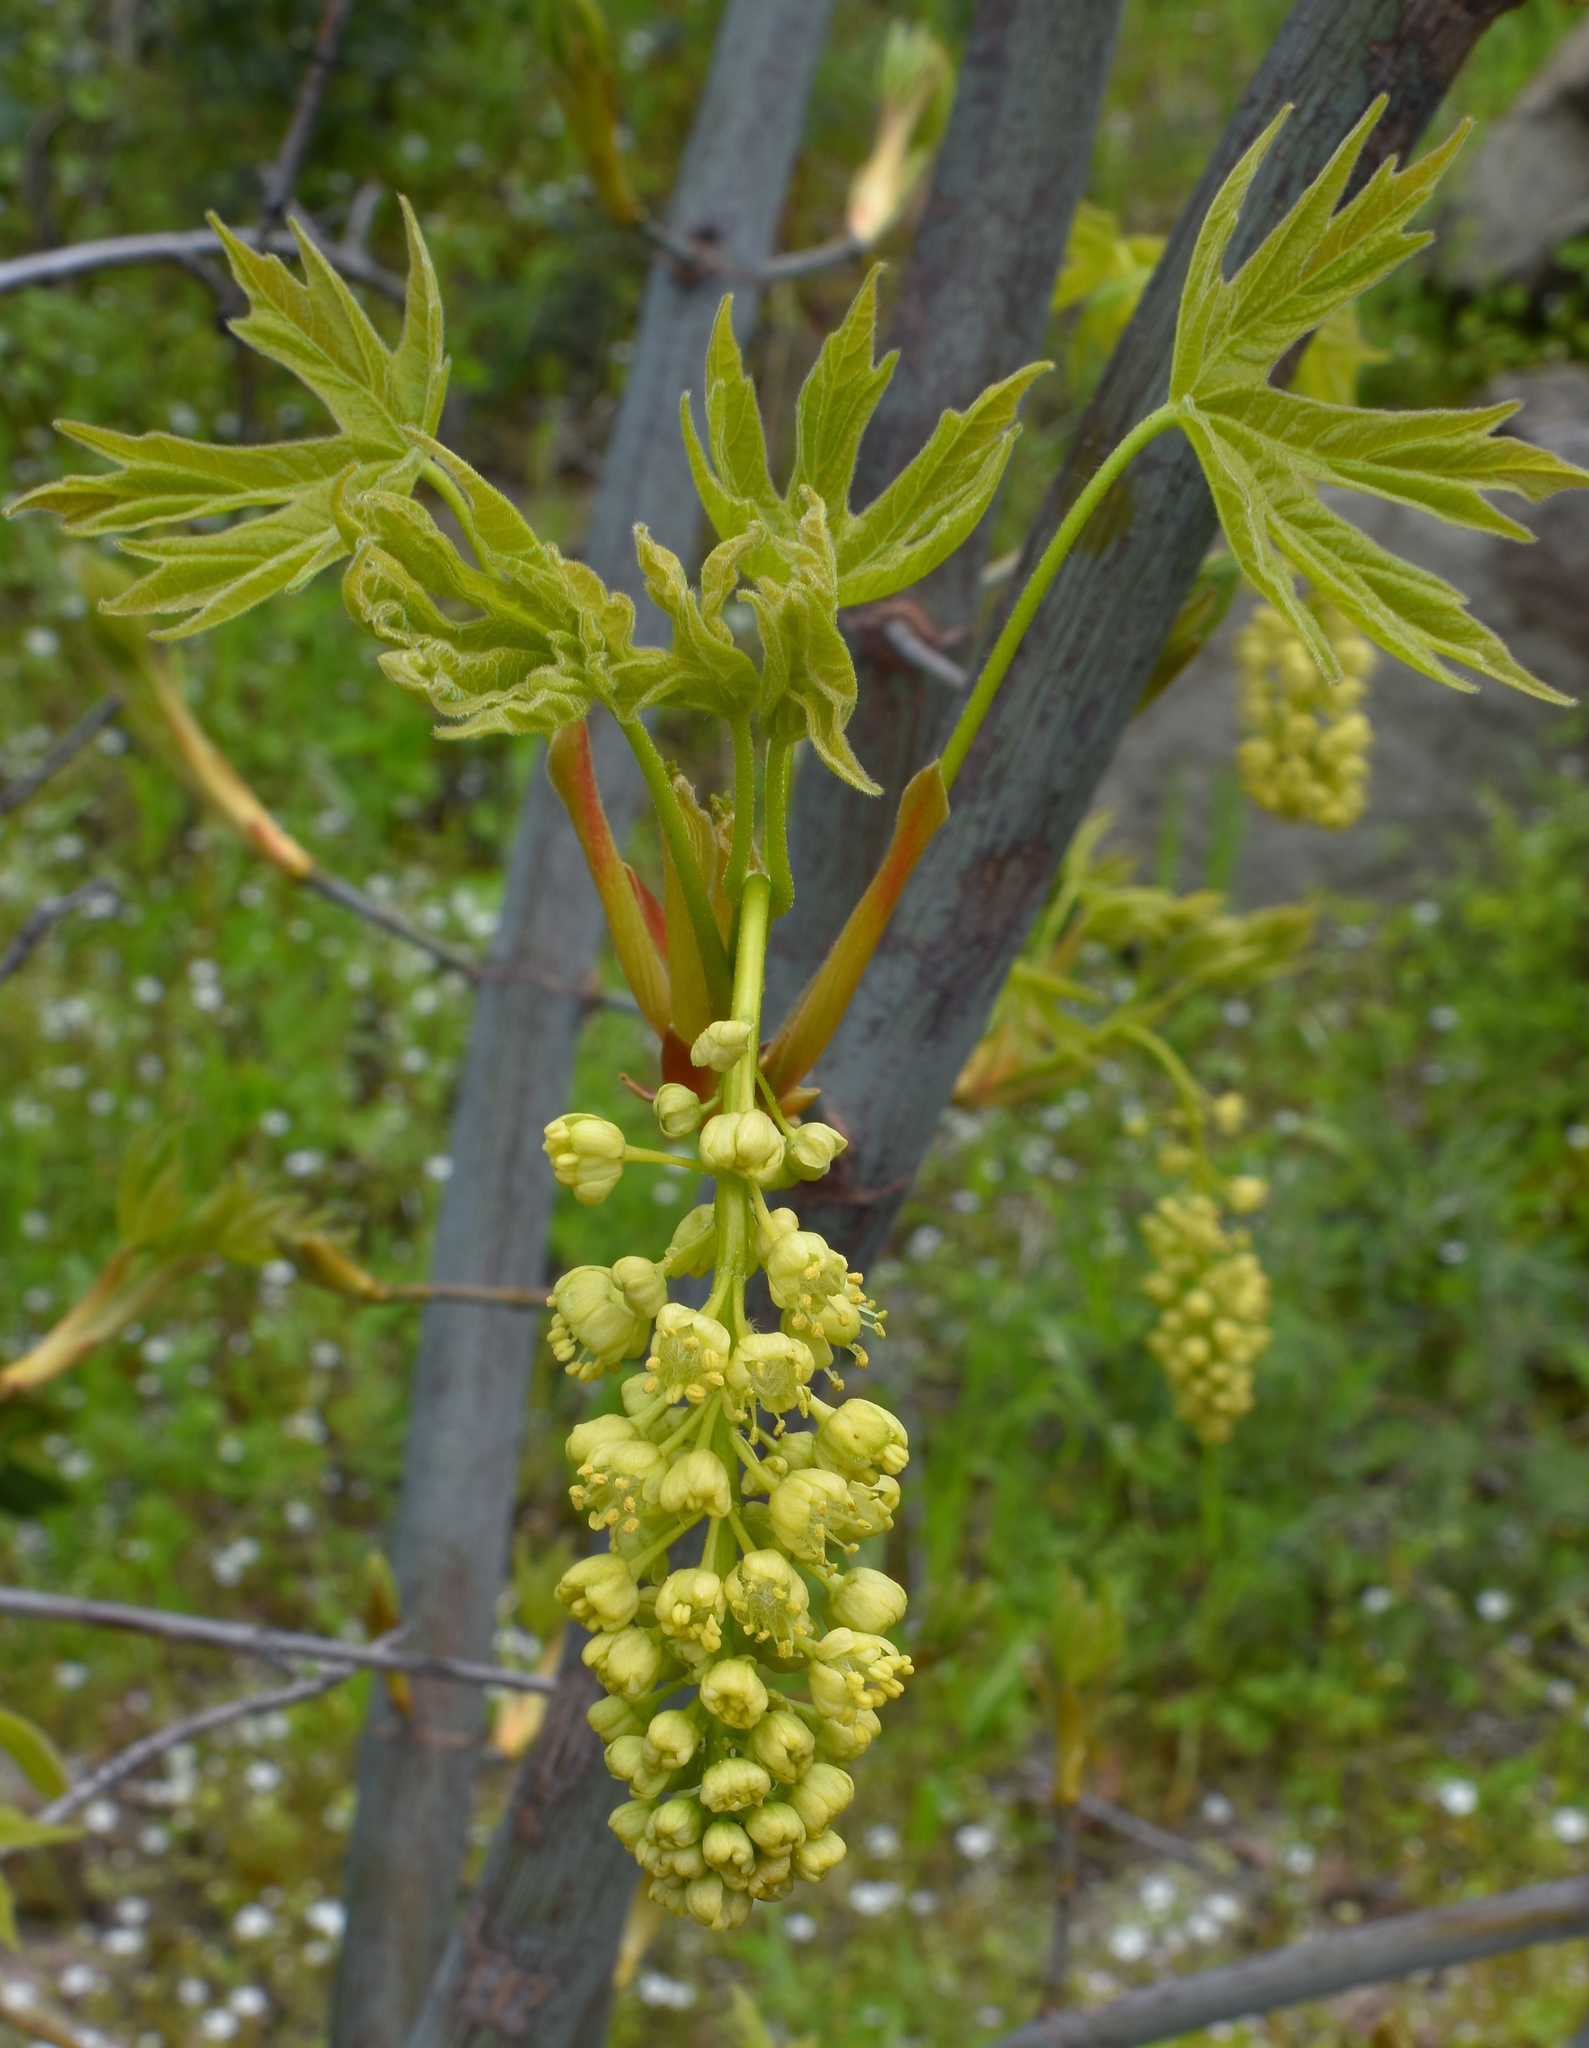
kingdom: Plantae
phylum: Tracheophyta
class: Magnoliopsida
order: Sapindales
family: Sapindaceae
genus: Acer
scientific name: Acer macrophyllum
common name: Oregon maple
